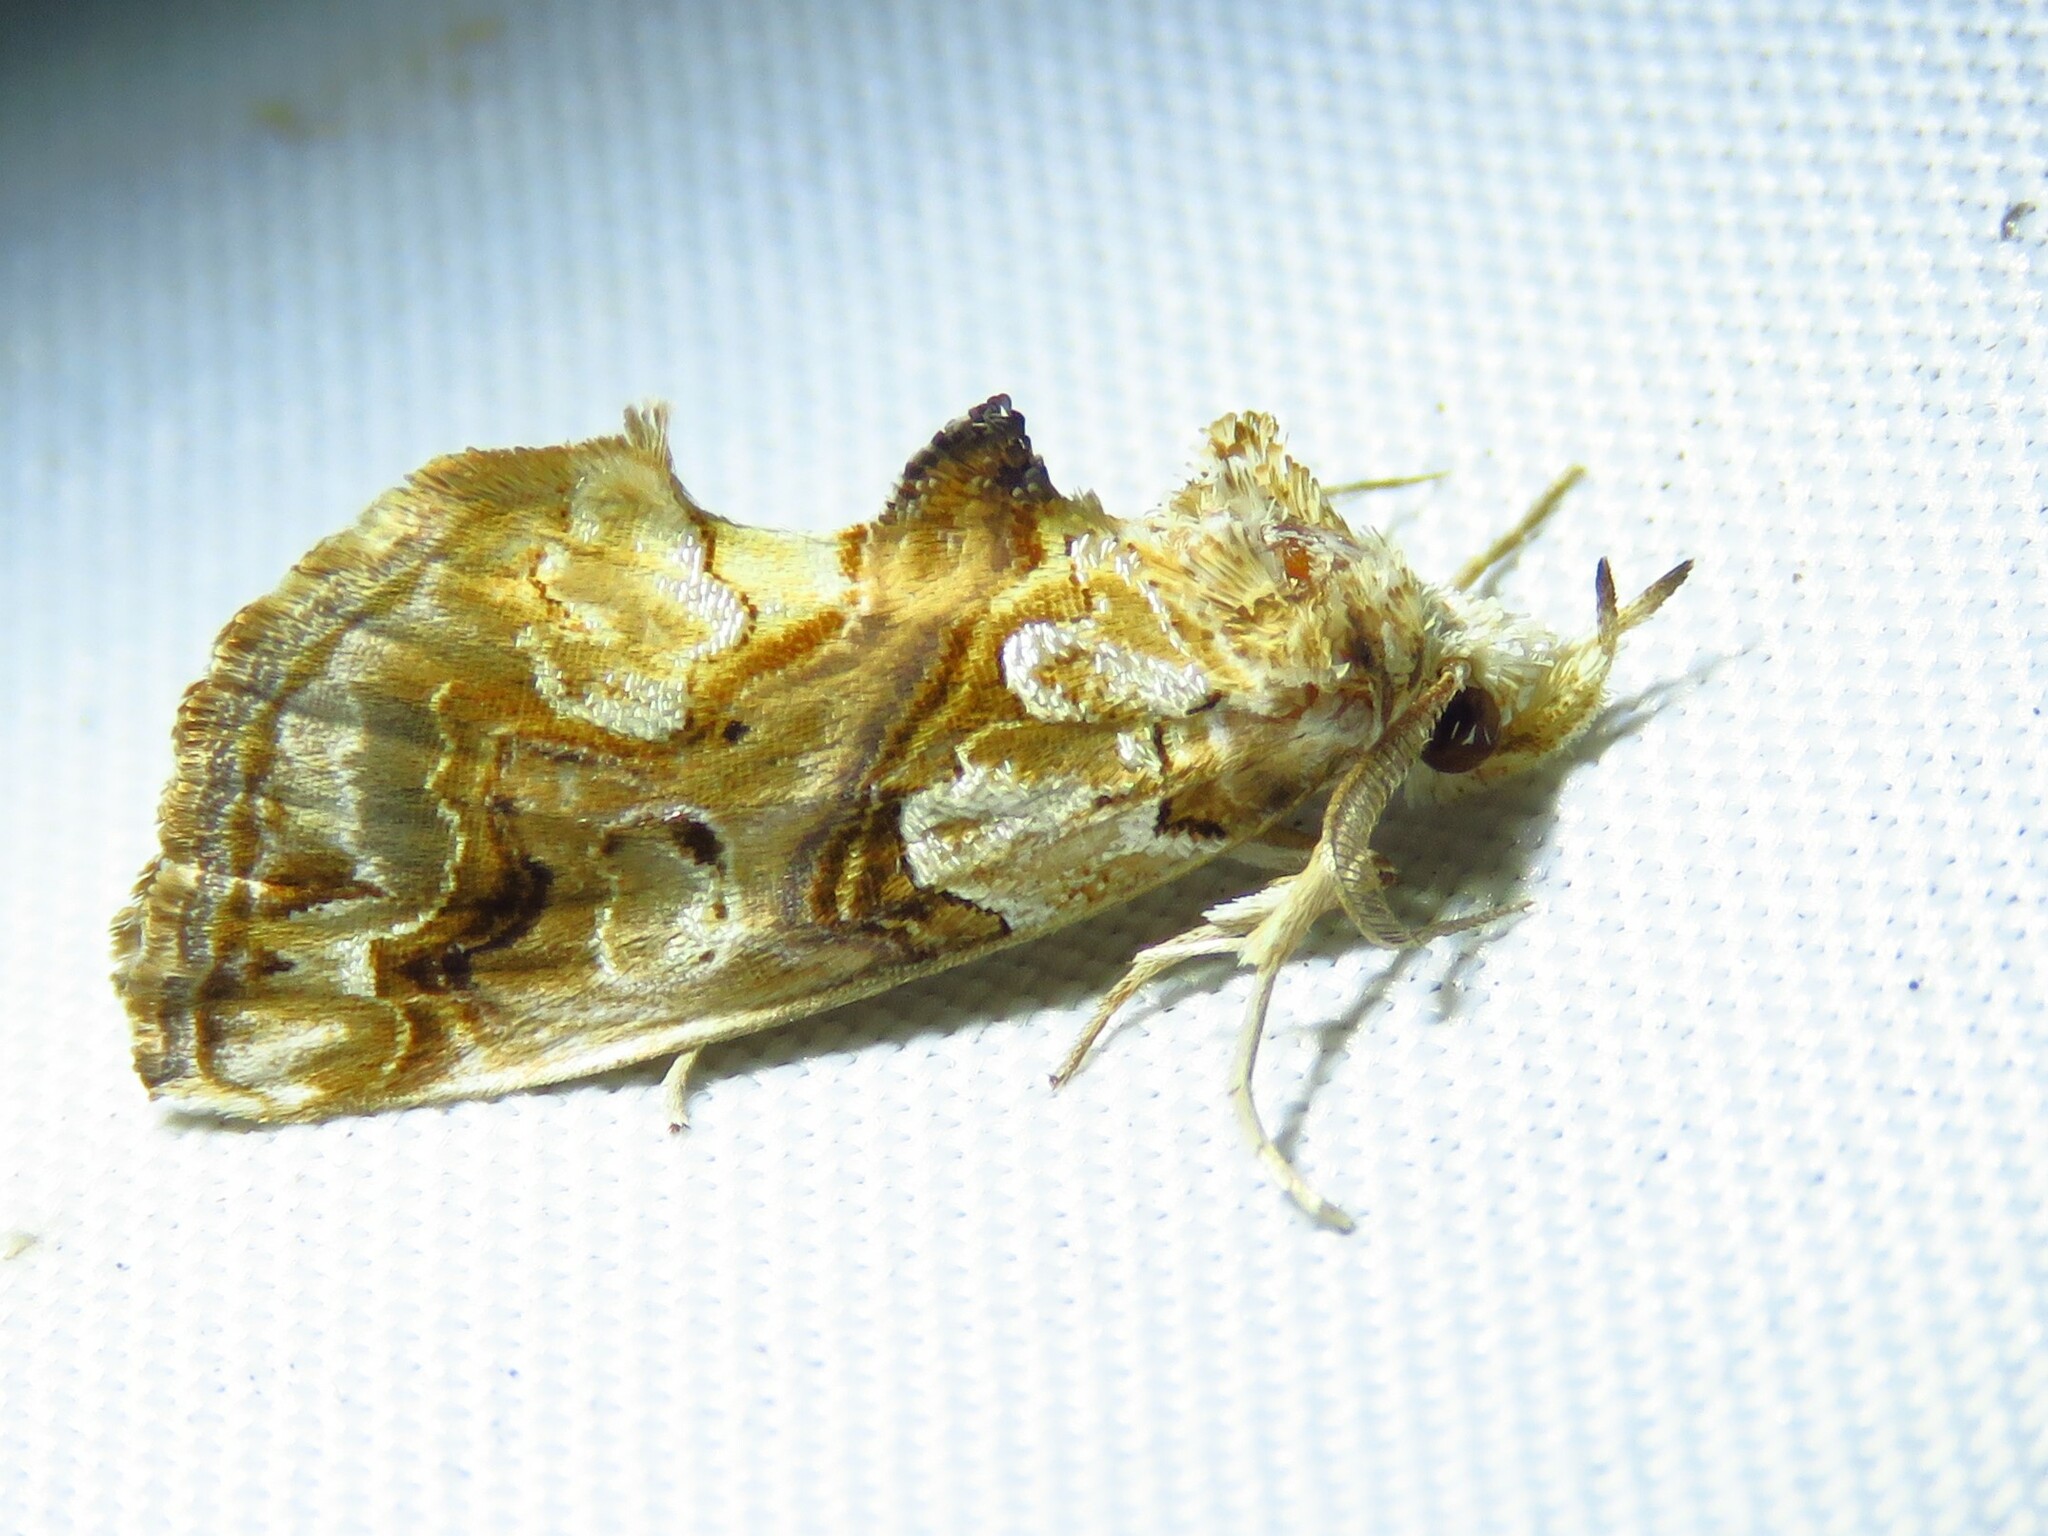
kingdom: Animalia
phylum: Arthropoda
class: Insecta
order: Lepidoptera
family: Erebidae
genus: Plusiodonta
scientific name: Plusiodonta compressipalpis
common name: Moonseed moth
